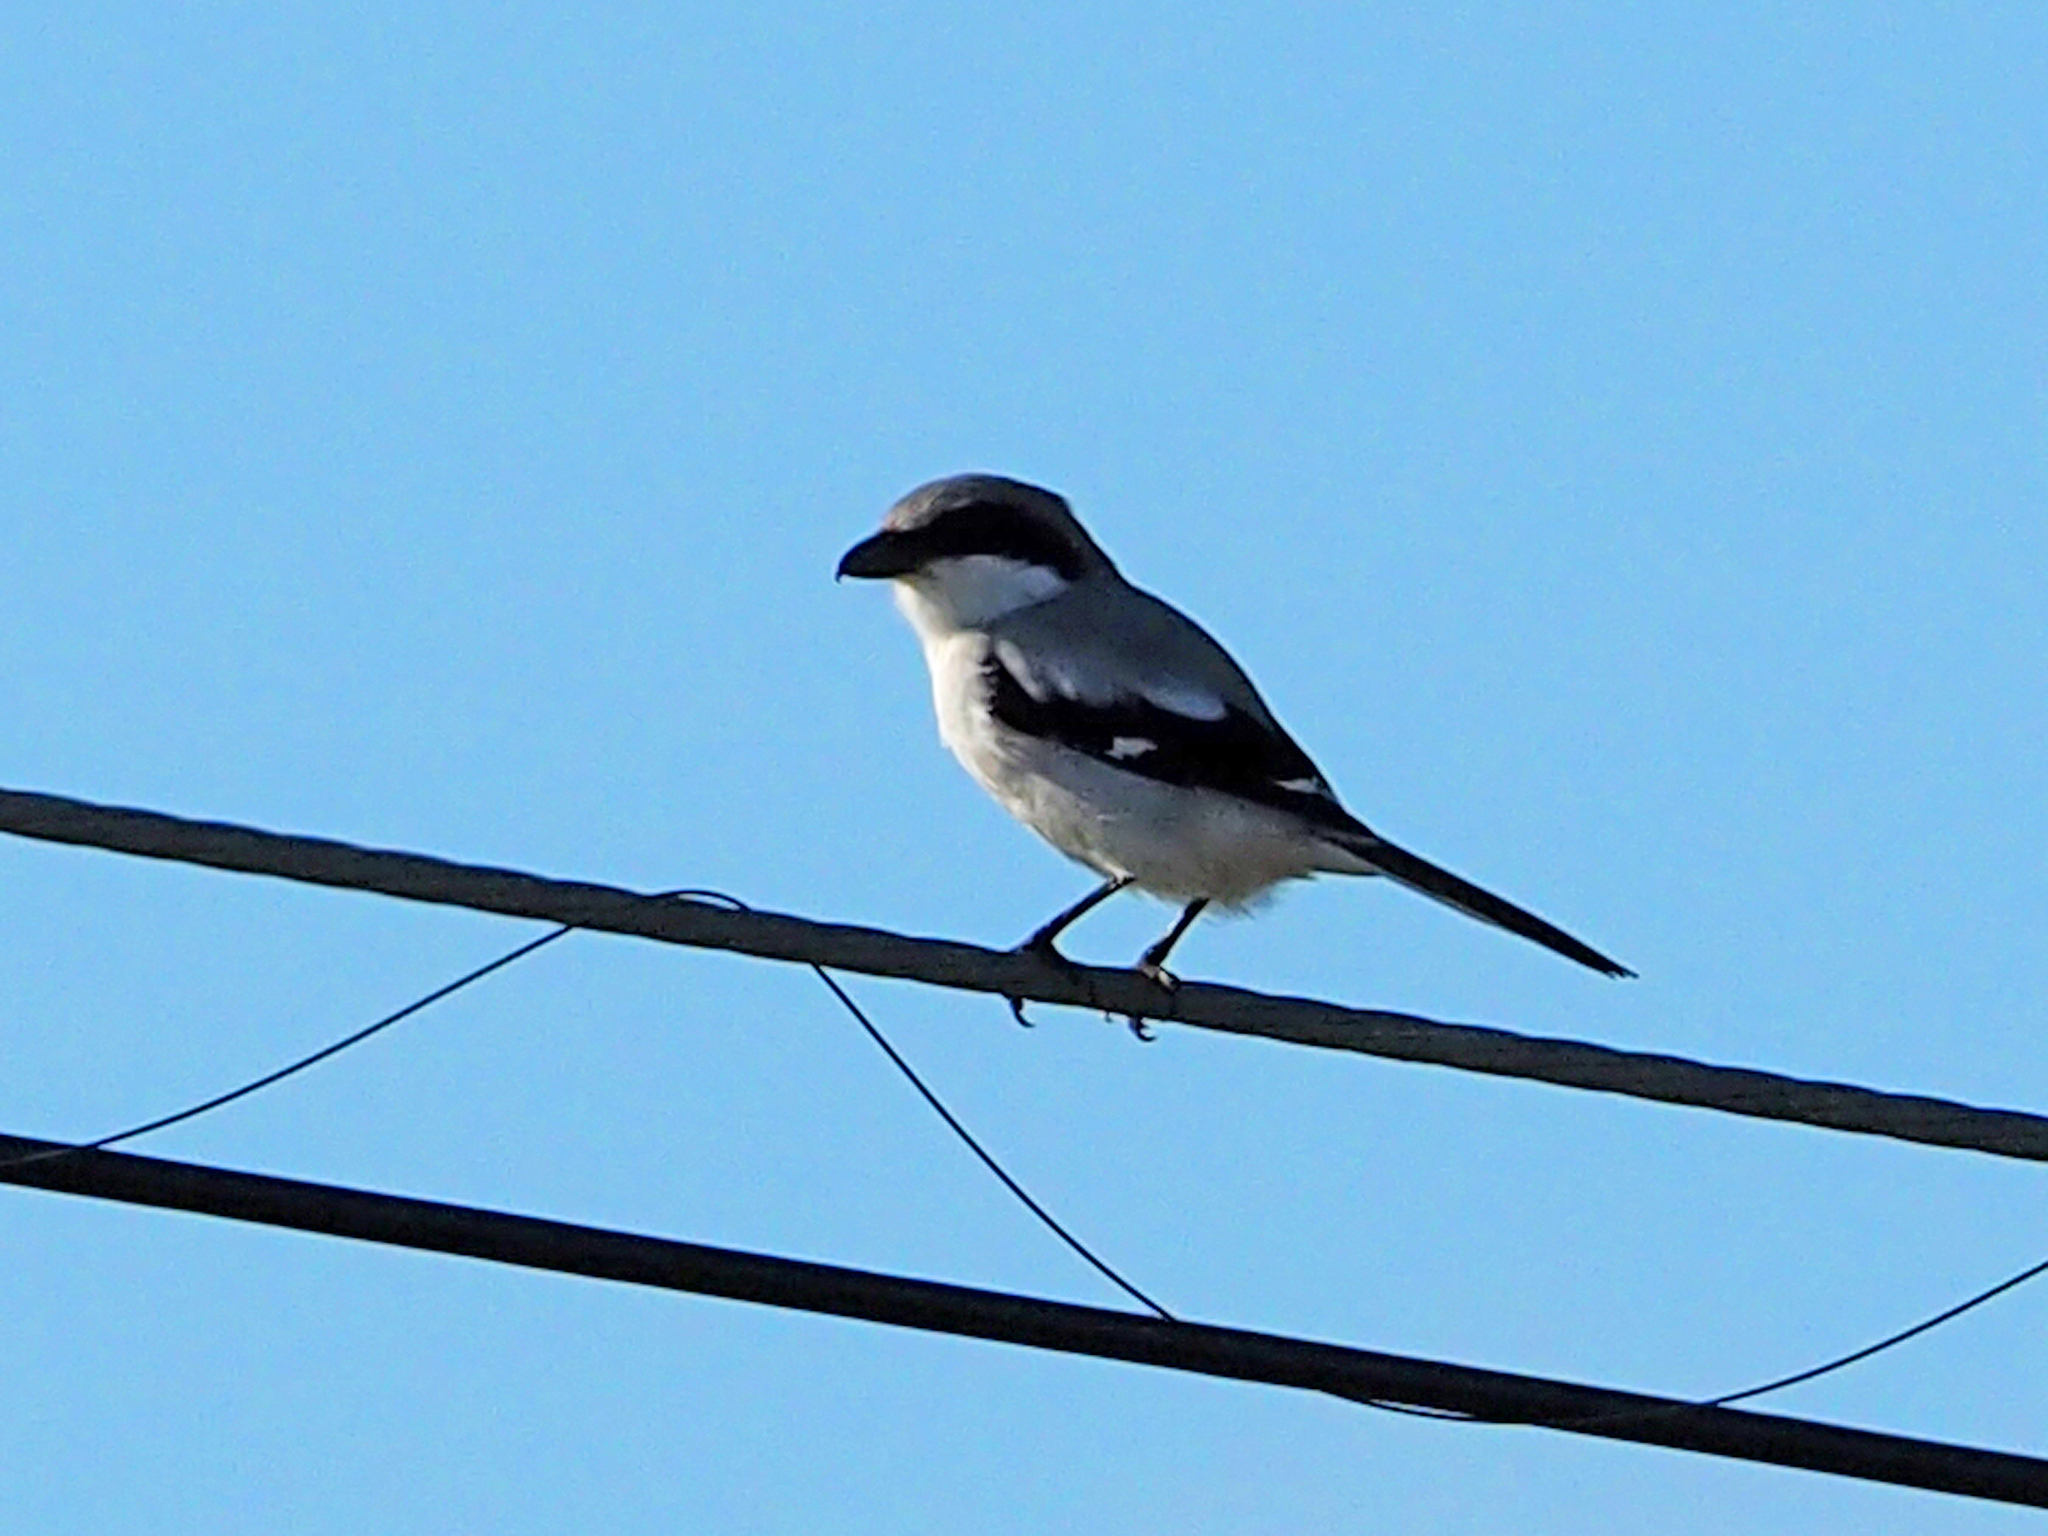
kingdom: Animalia
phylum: Chordata
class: Aves
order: Passeriformes
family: Laniidae
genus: Lanius
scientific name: Lanius ludovicianus
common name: Loggerhead shrike
